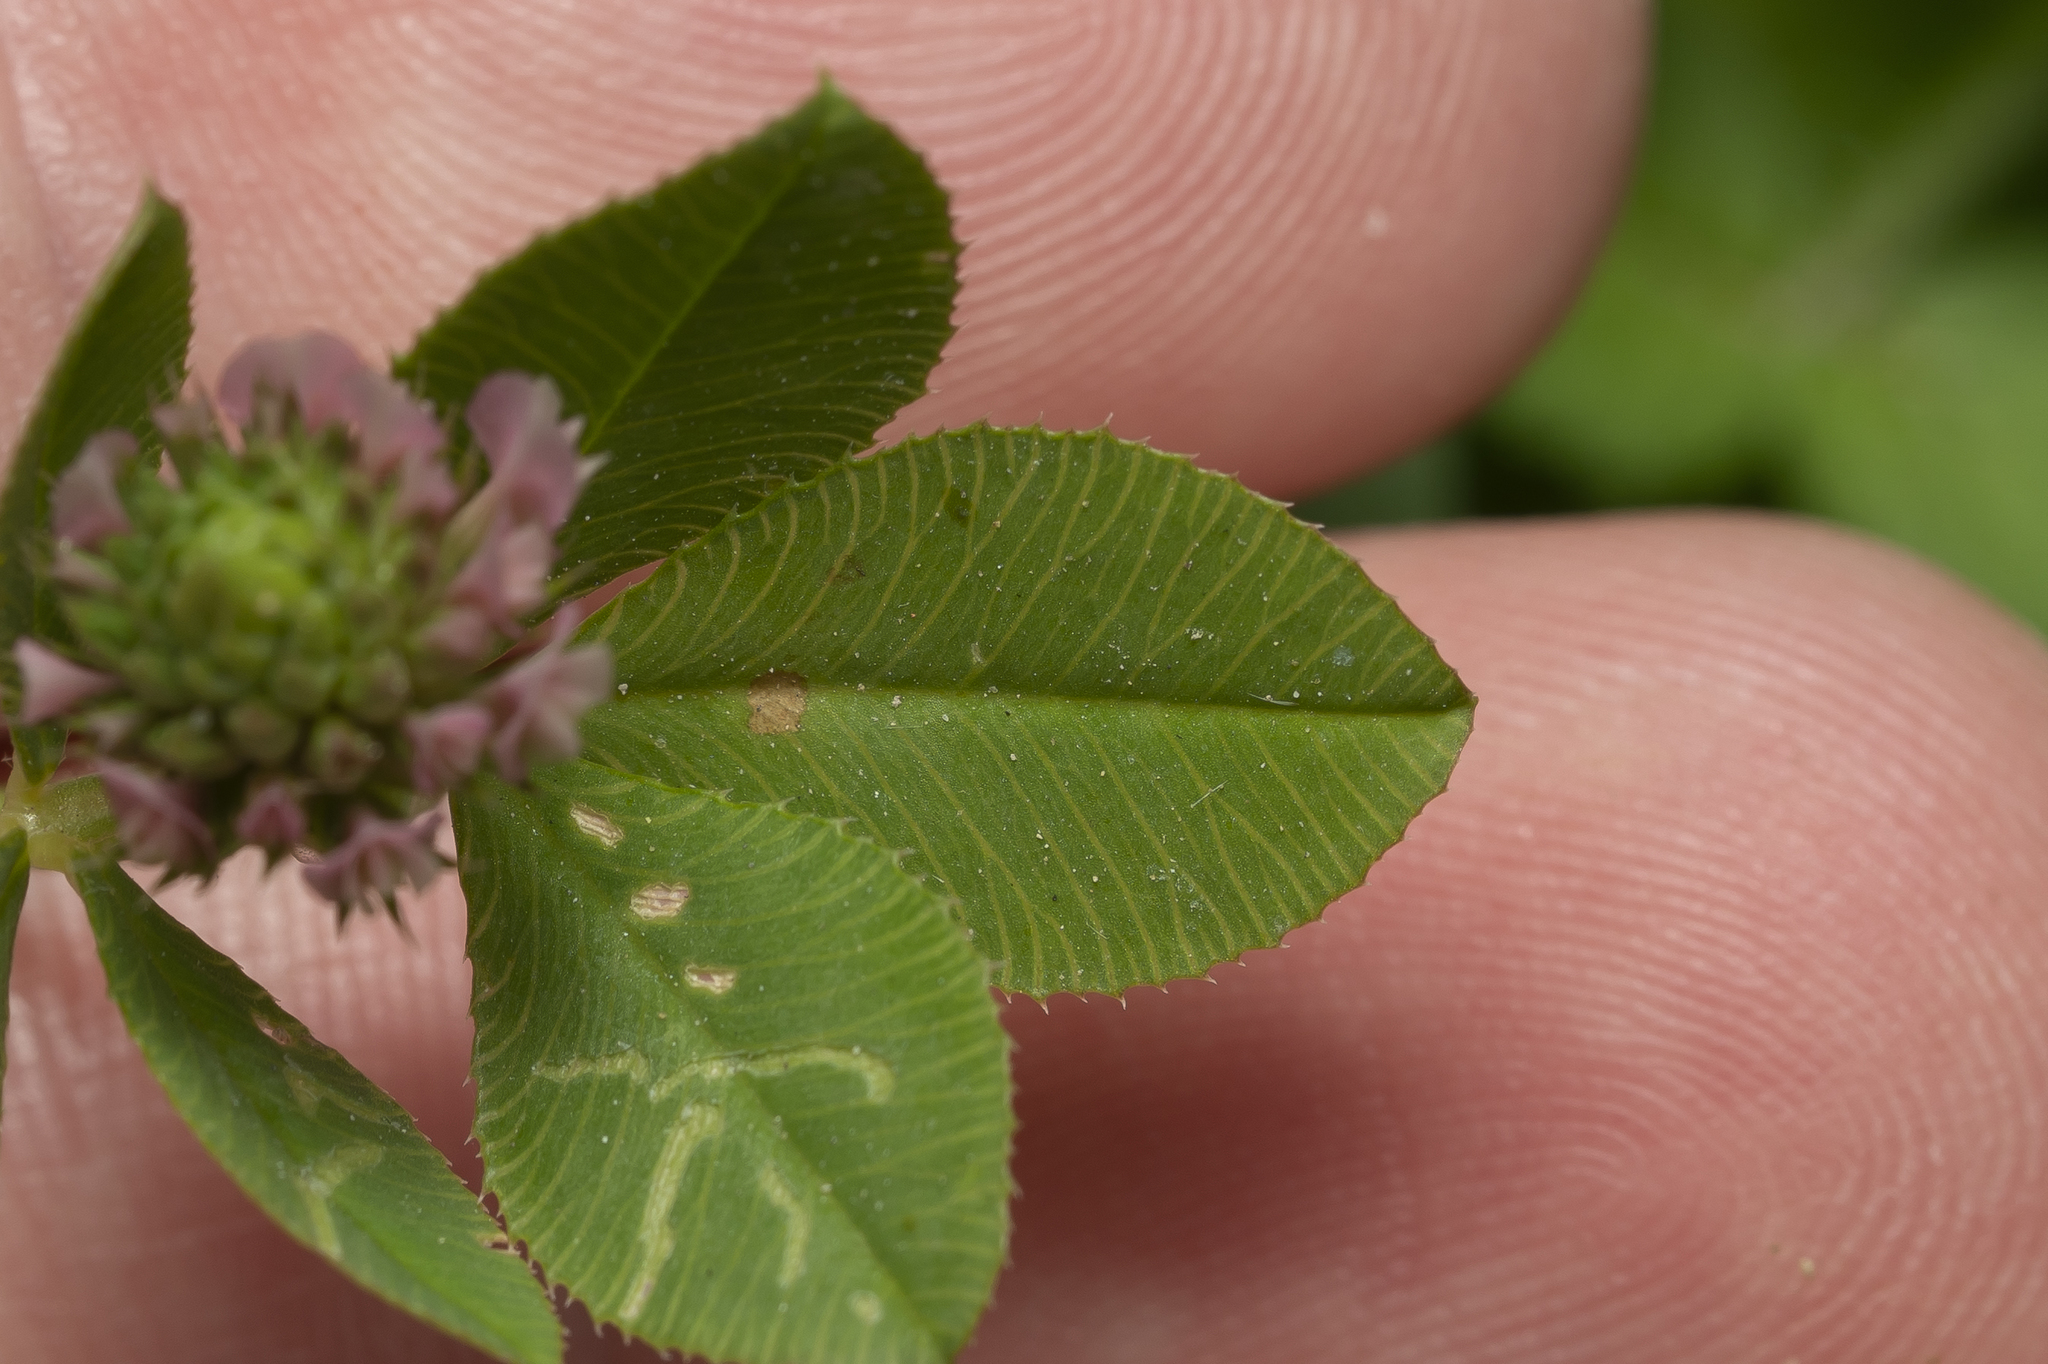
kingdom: Plantae
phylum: Tracheophyta
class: Magnoliopsida
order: Fabales
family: Fabaceae
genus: Trifolium
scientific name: Trifolium nigrescens
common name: Small white clover
